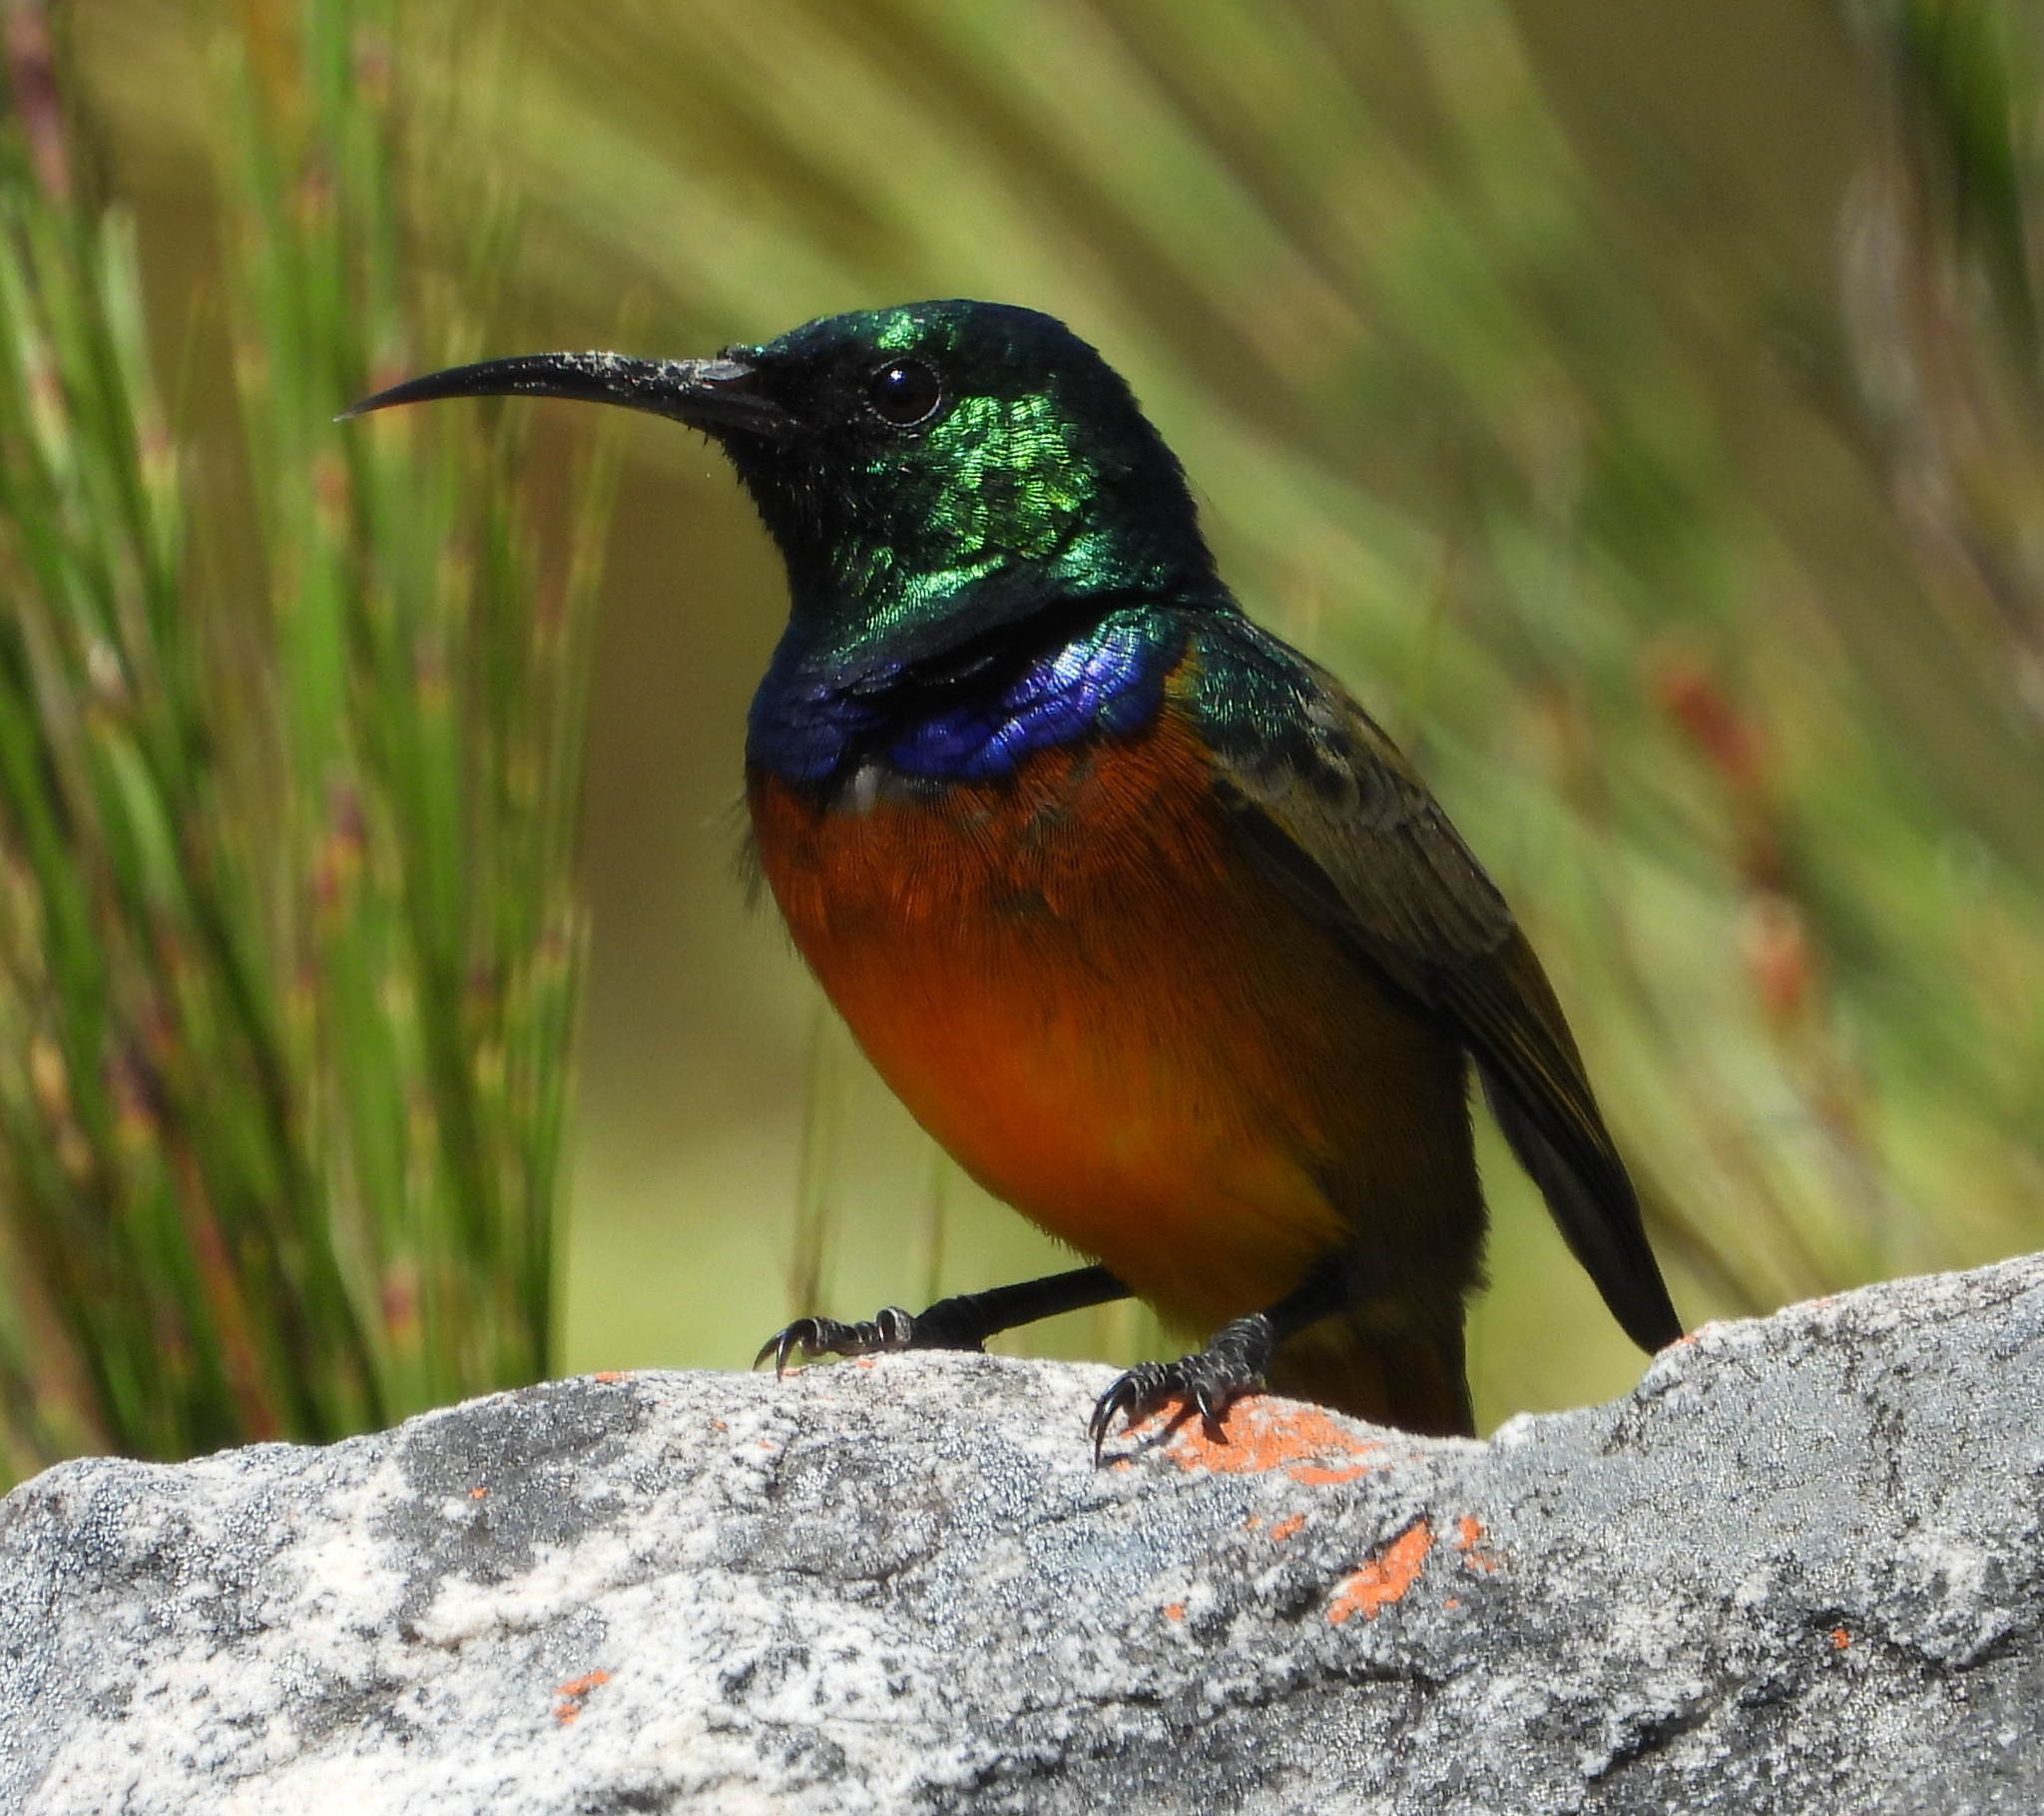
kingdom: Animalia
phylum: Chordata
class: Aves
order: Passeriformes
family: Nectariniidae
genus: Anthobaphes
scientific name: Anthobaphes violacea
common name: Orange-breasted sunbird
